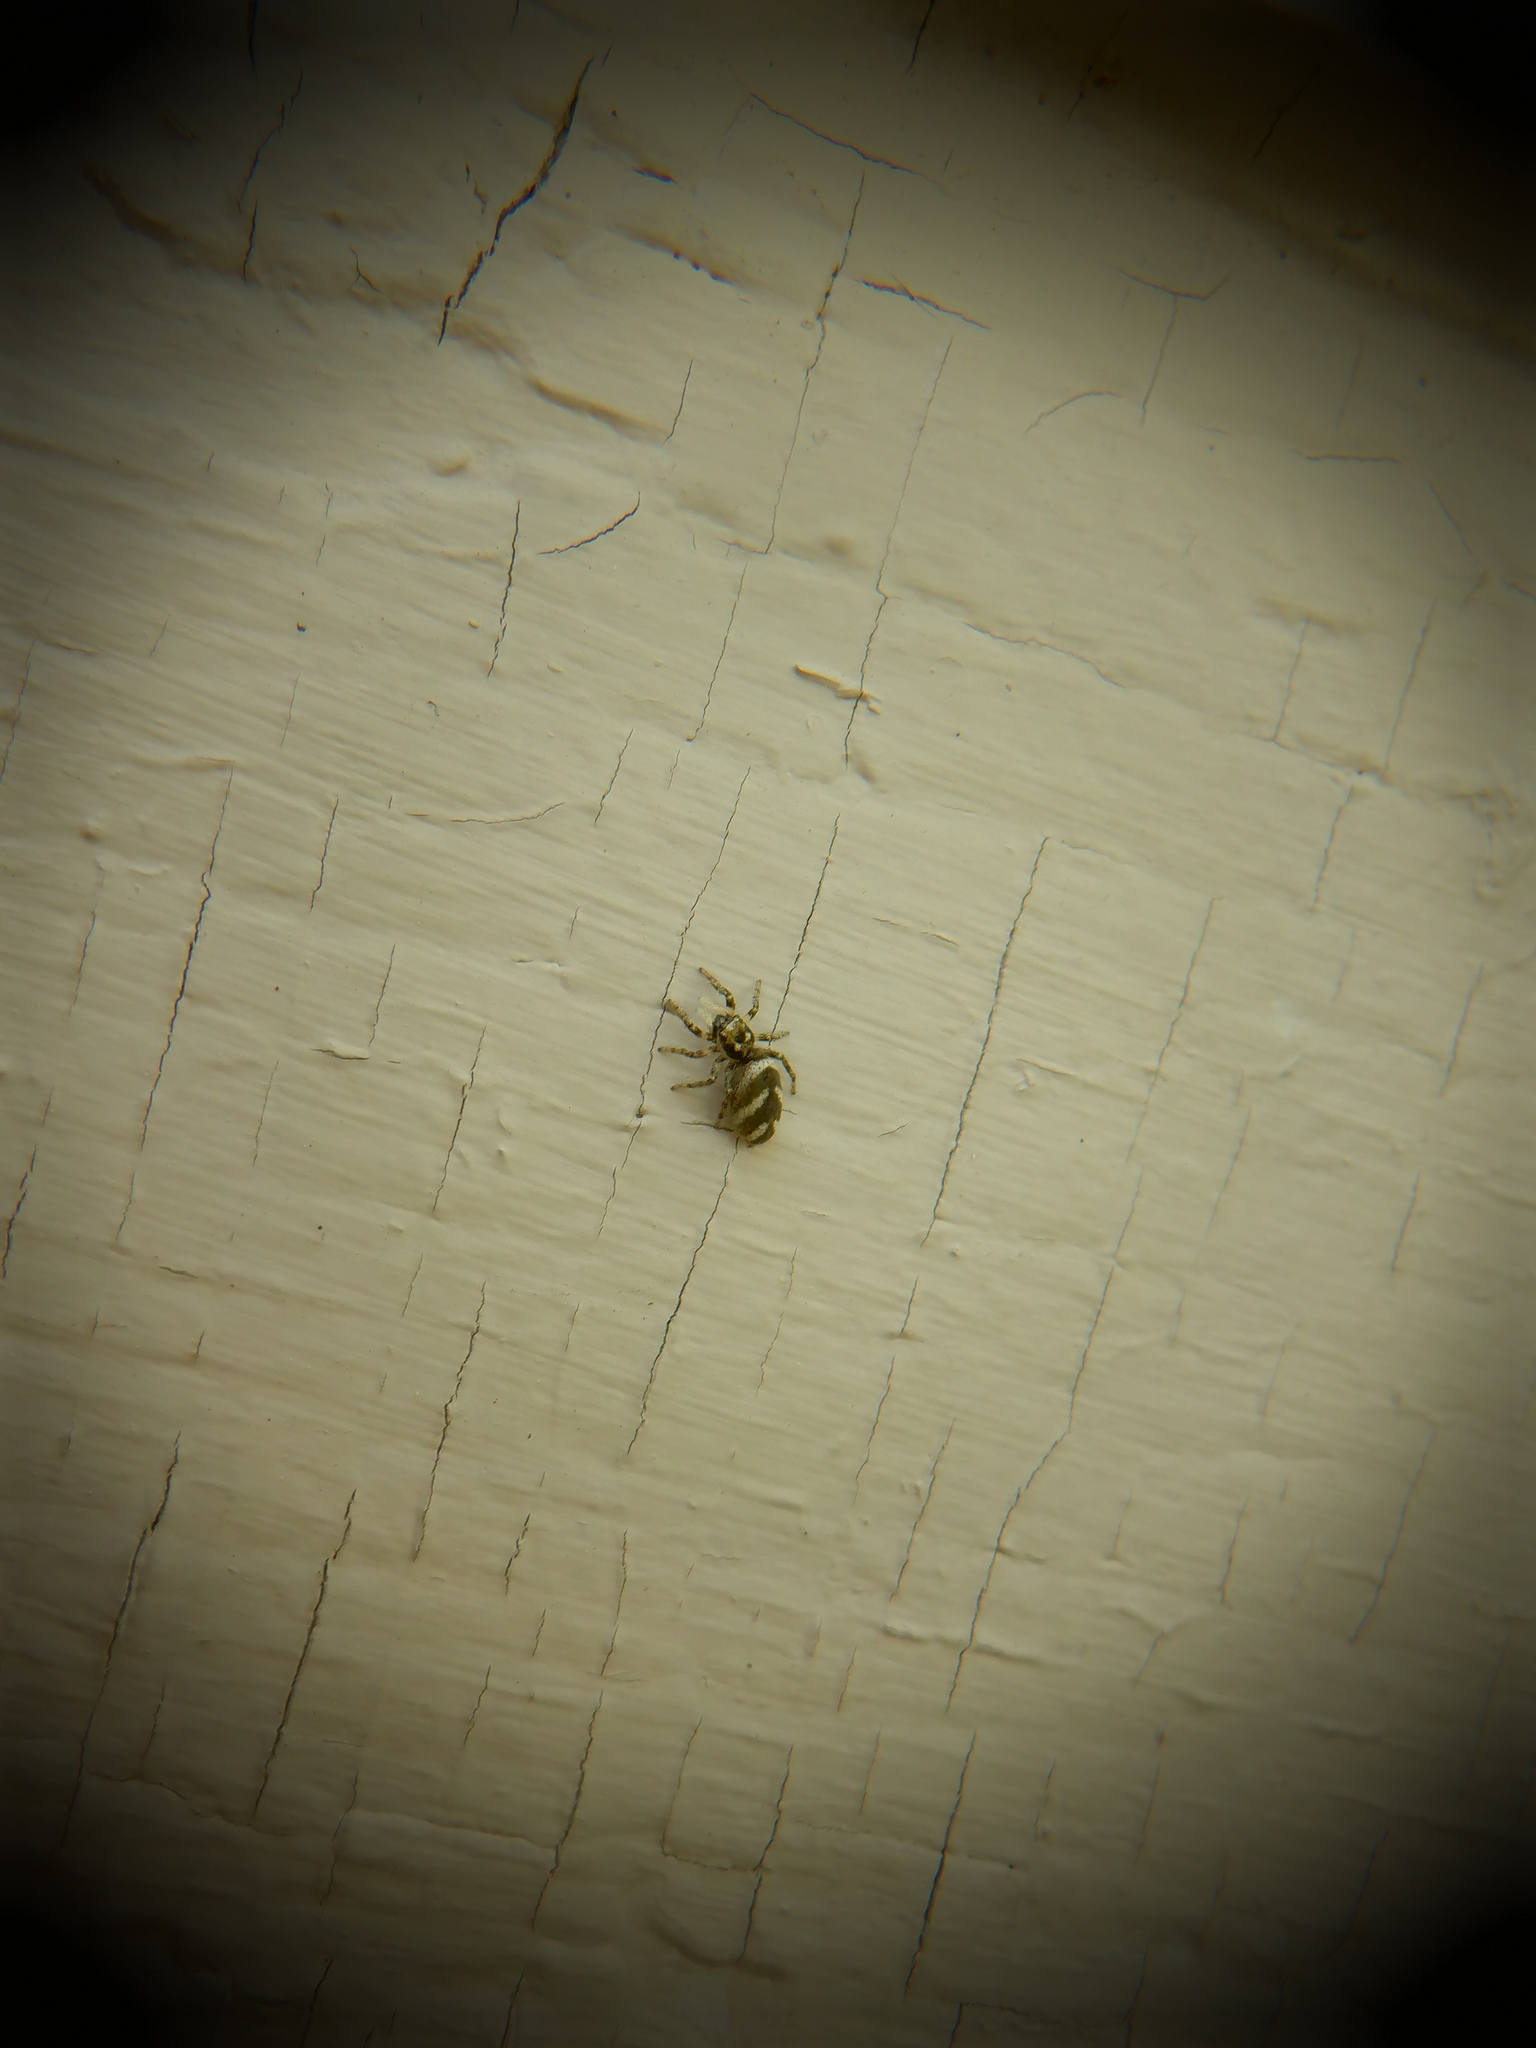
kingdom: Animalia
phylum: Arthropoda
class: Arachnida
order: Araneae
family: Salticidae
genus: Salticus
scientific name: Salticus scenicus
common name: Zebra jumper
